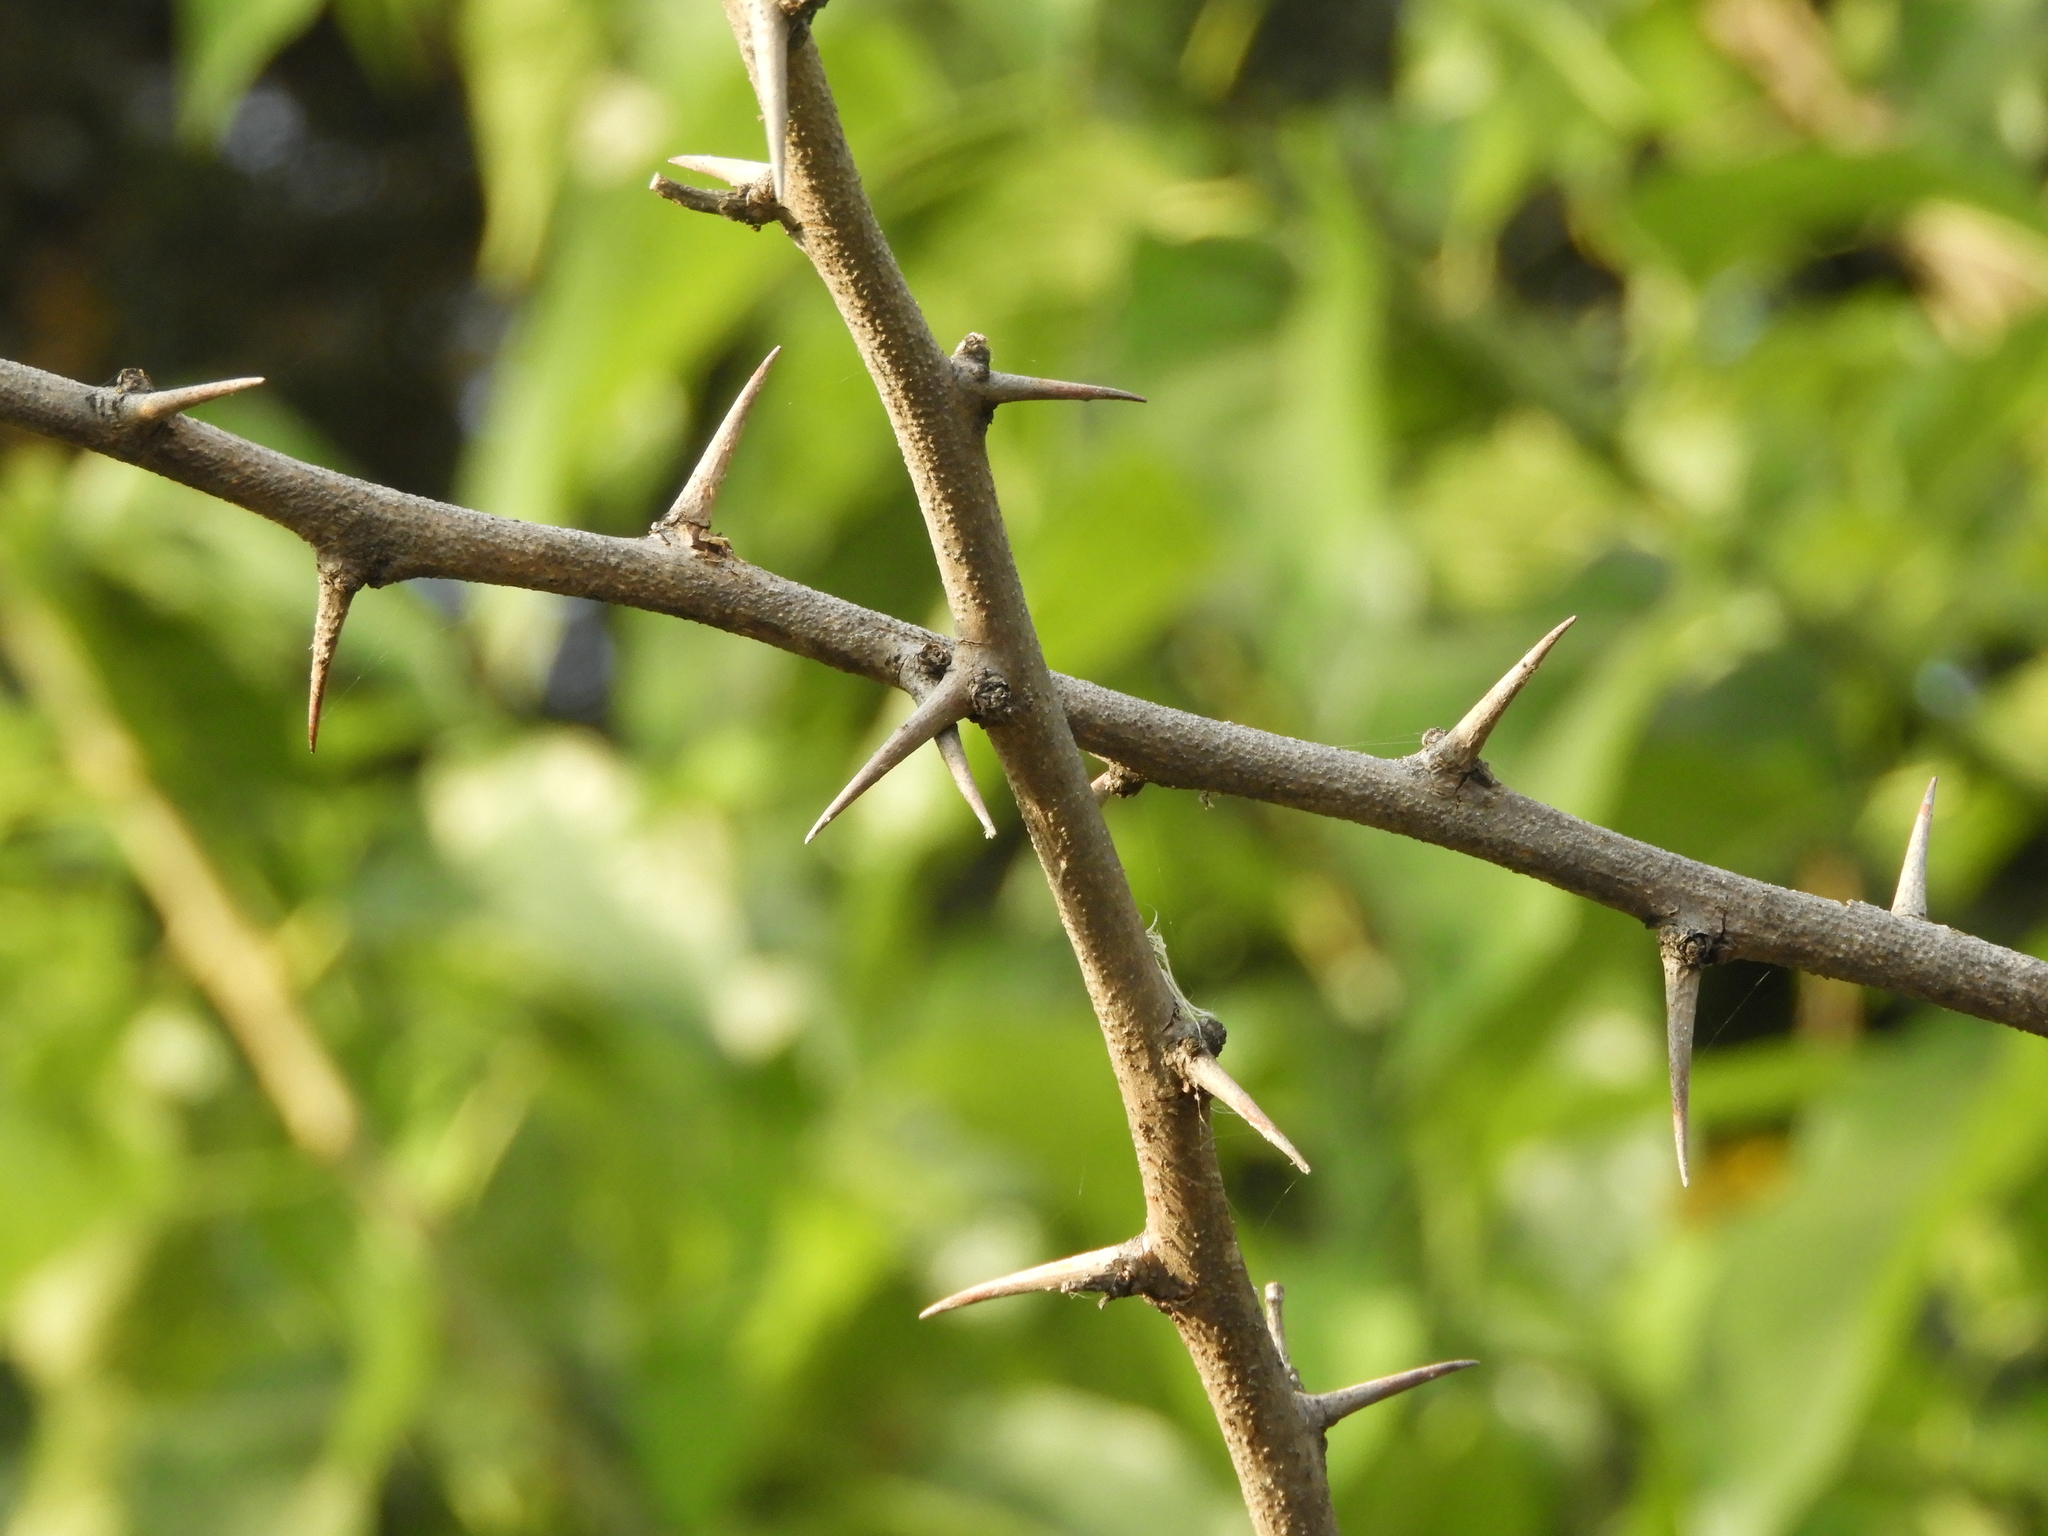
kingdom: Plantae
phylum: Tracheophyta
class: Magnoliopsida
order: Rosales
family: Moraceae
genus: Maclura
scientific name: Maclura pomifera
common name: Osage-orange
